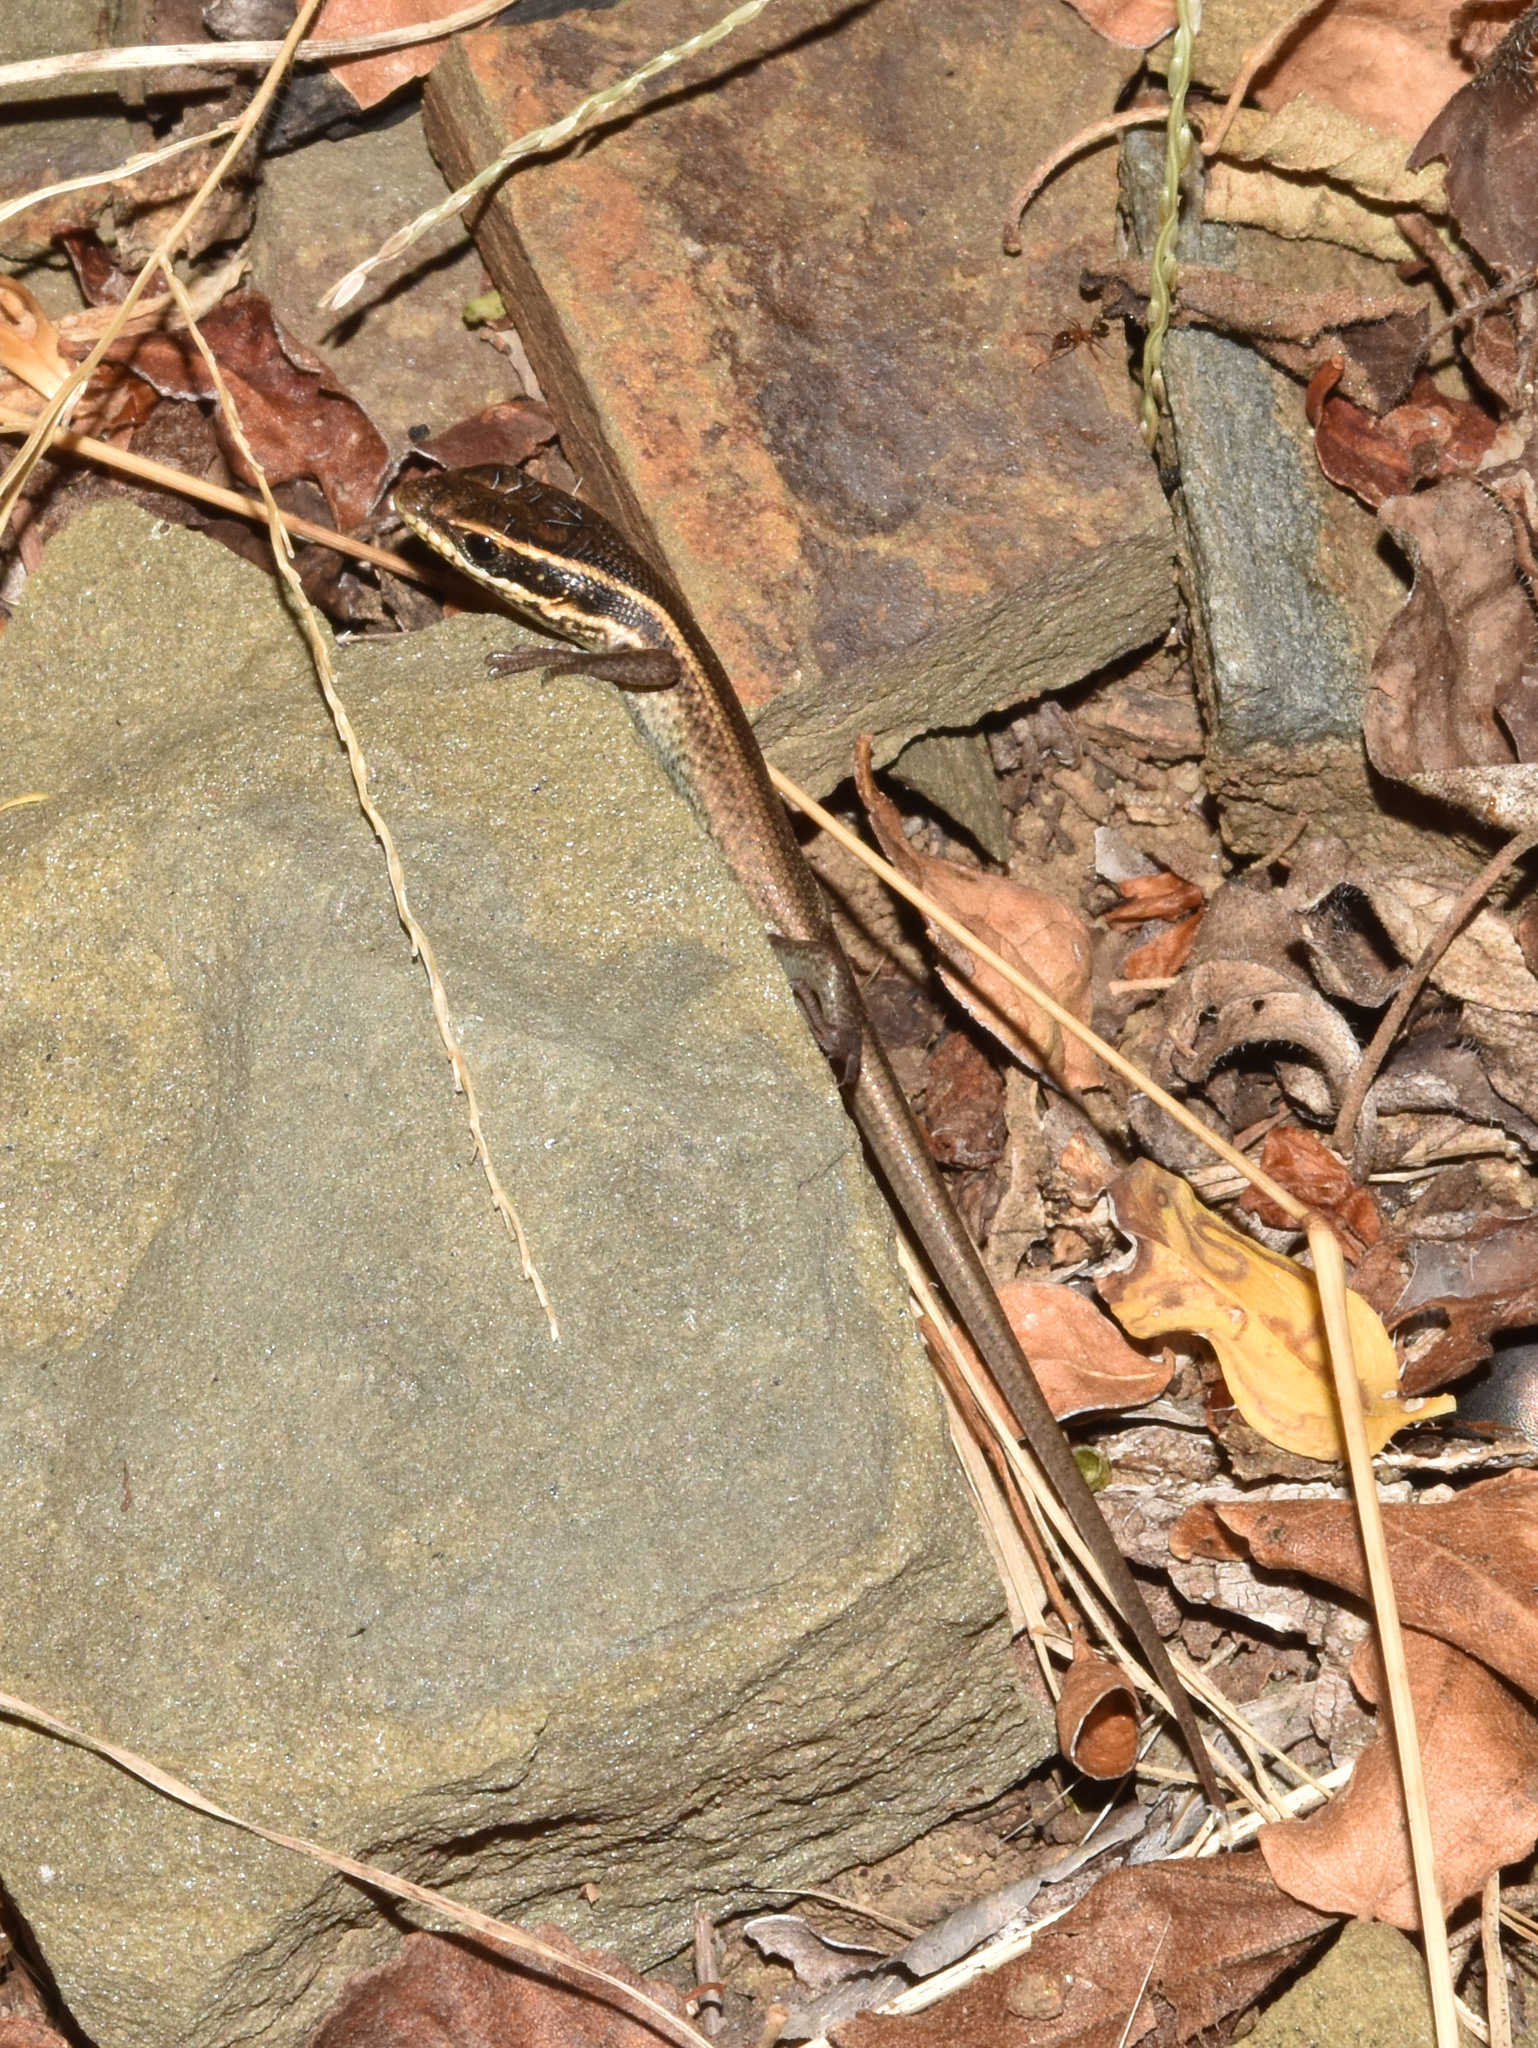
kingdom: Animalia
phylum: Chordata
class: Squamata
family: Scincidae
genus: Trachylepis
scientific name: Trachylepis punctatissima
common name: Montane speckled skink
